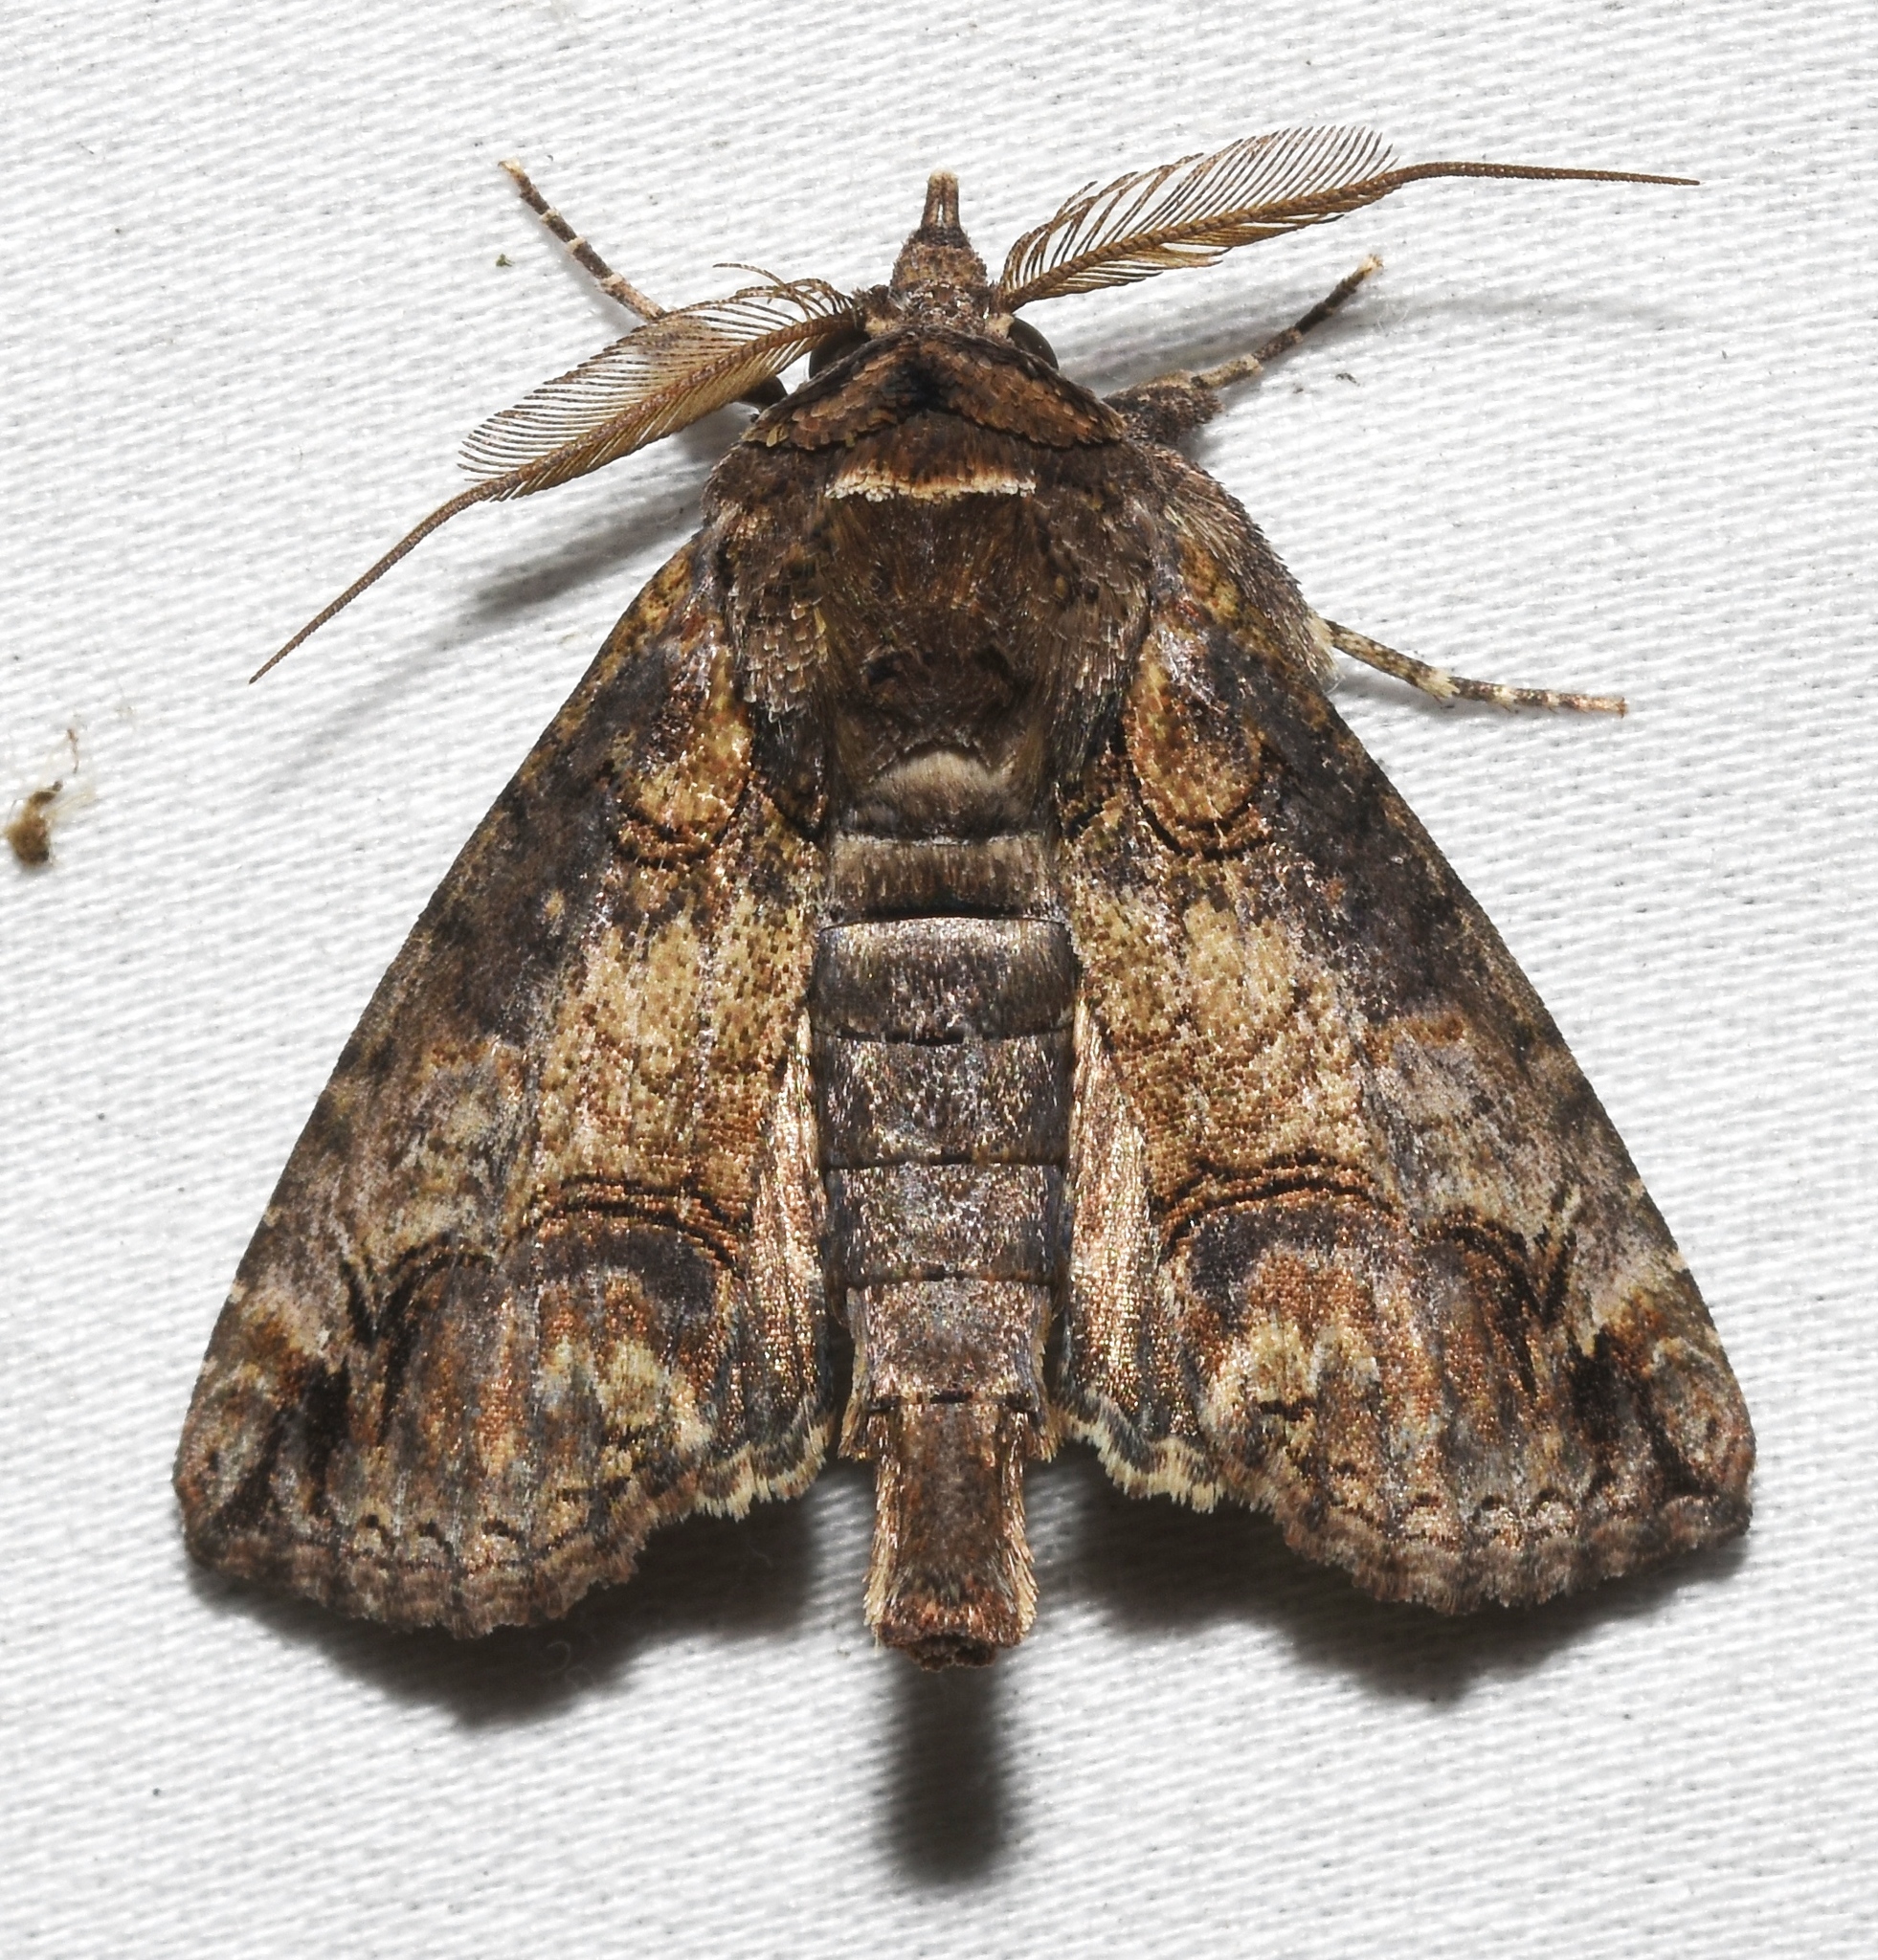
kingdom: Animalia
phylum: Arthropoda
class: Insecta
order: Lepidoptera
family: Euteliidae
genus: Paectes
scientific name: Paectes abrostoloides
